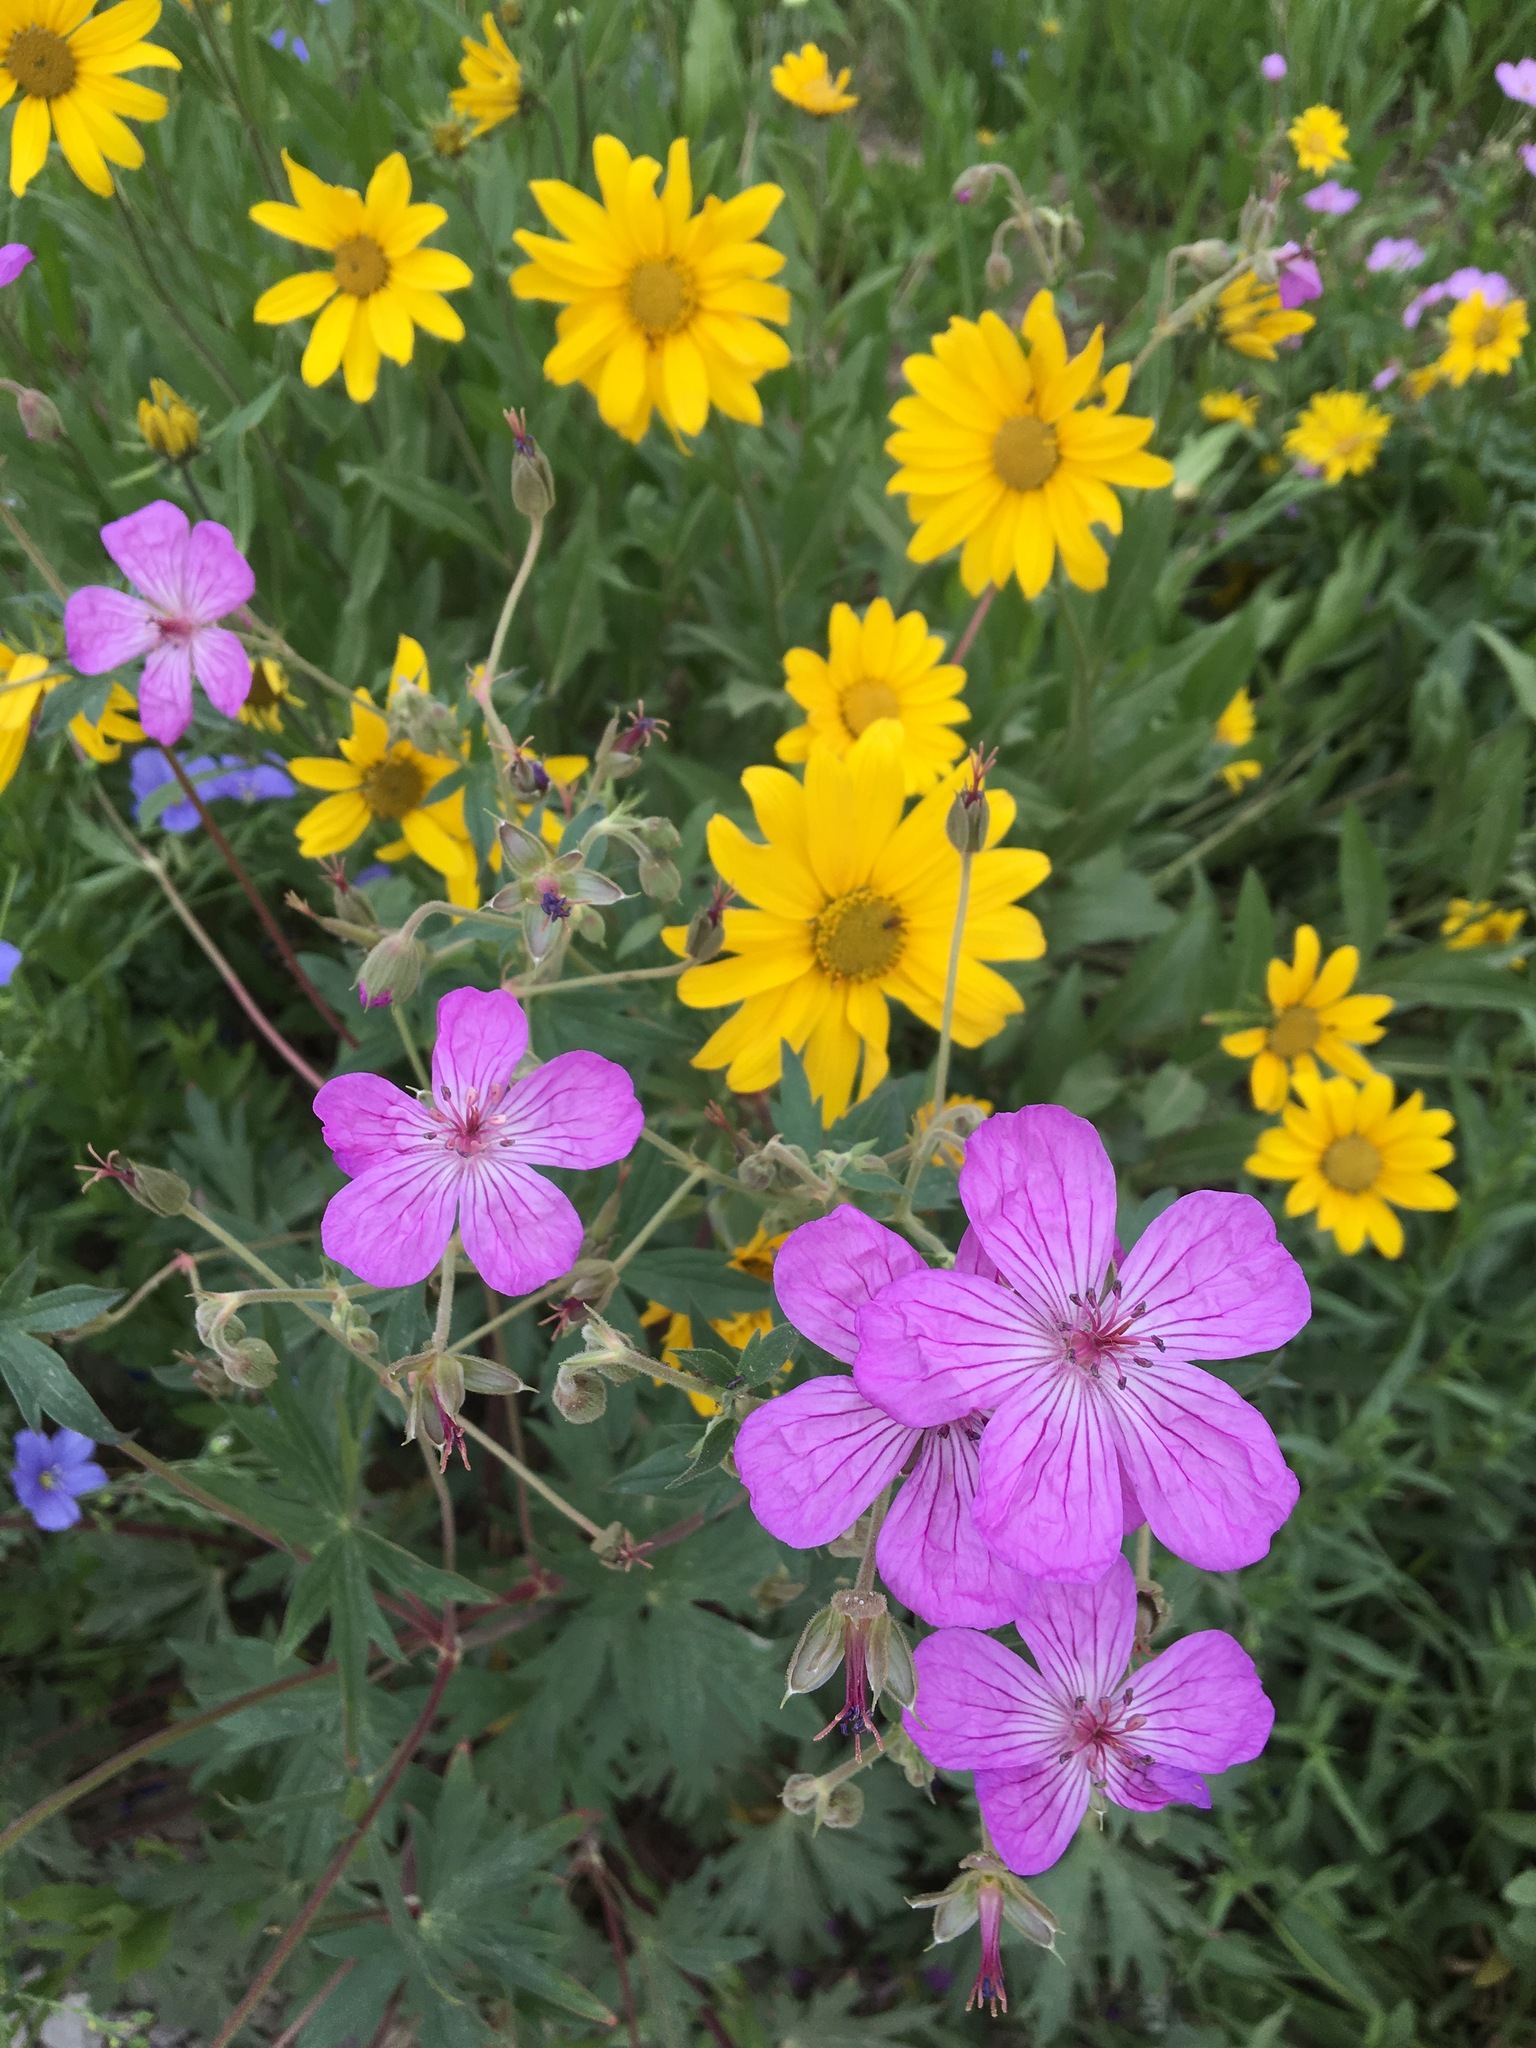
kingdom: Plantae
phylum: Tracheophyta
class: Magnoliopsida
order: Geraniales
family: Geraniaceae
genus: Geranium
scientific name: Geranium viscosissimum
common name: Purple geranium
